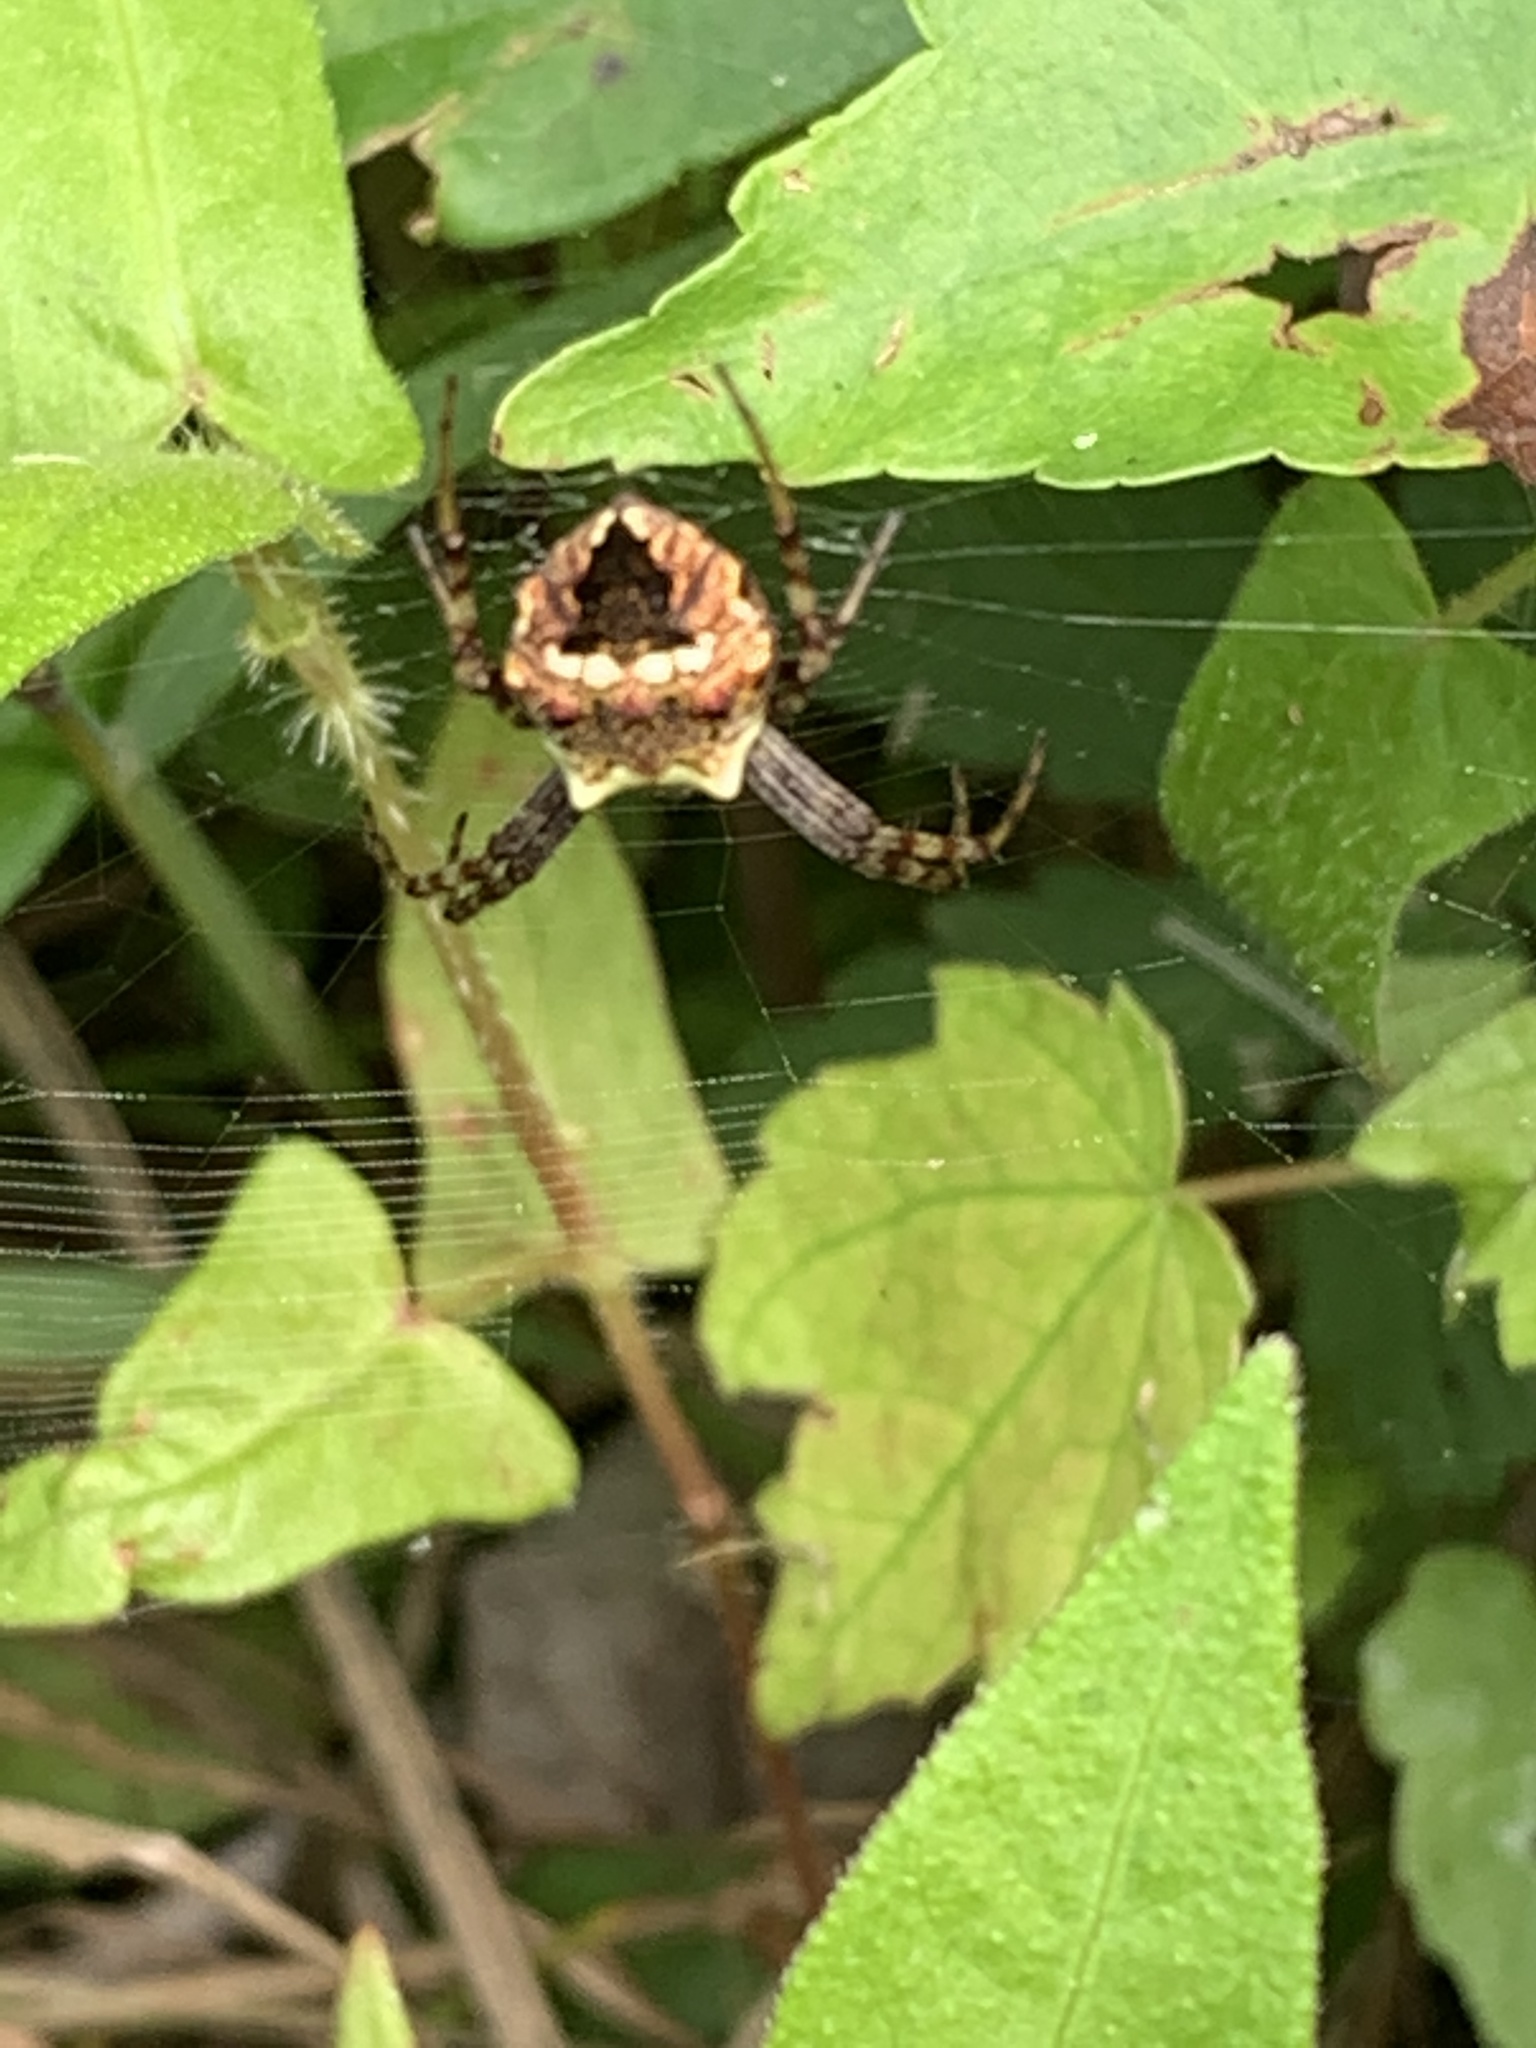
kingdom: Animalia
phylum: Arthropoda
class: Arachnida
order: Araneae
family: Araneidae
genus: Gea
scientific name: Gea heptagon
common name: Orb weavers
